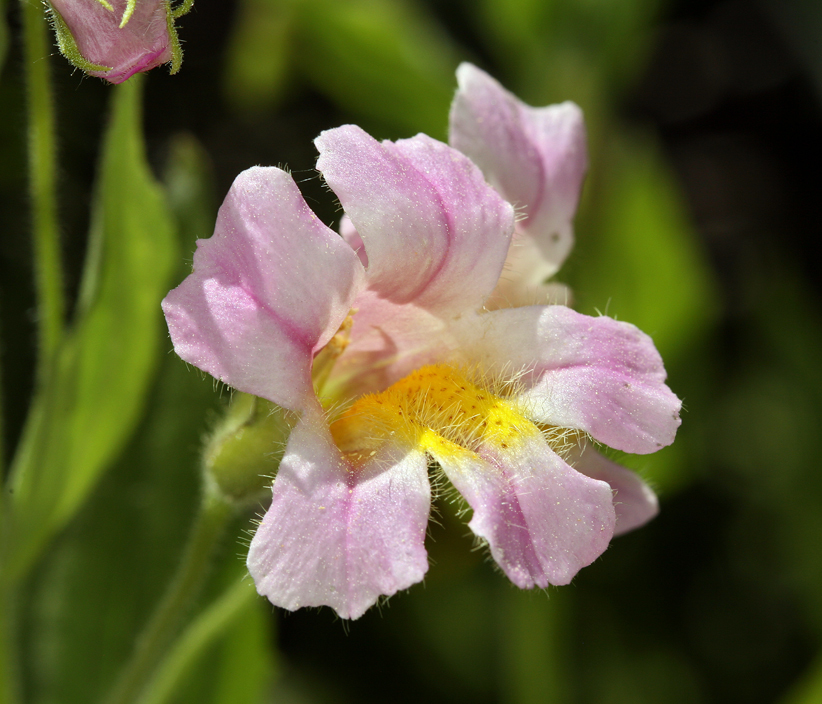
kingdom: Plantae
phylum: Tracheophyta
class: Magnoliopsida
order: Lamiales
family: Phrymaceae
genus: Erythranthe
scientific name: Erythranthe erubescens
